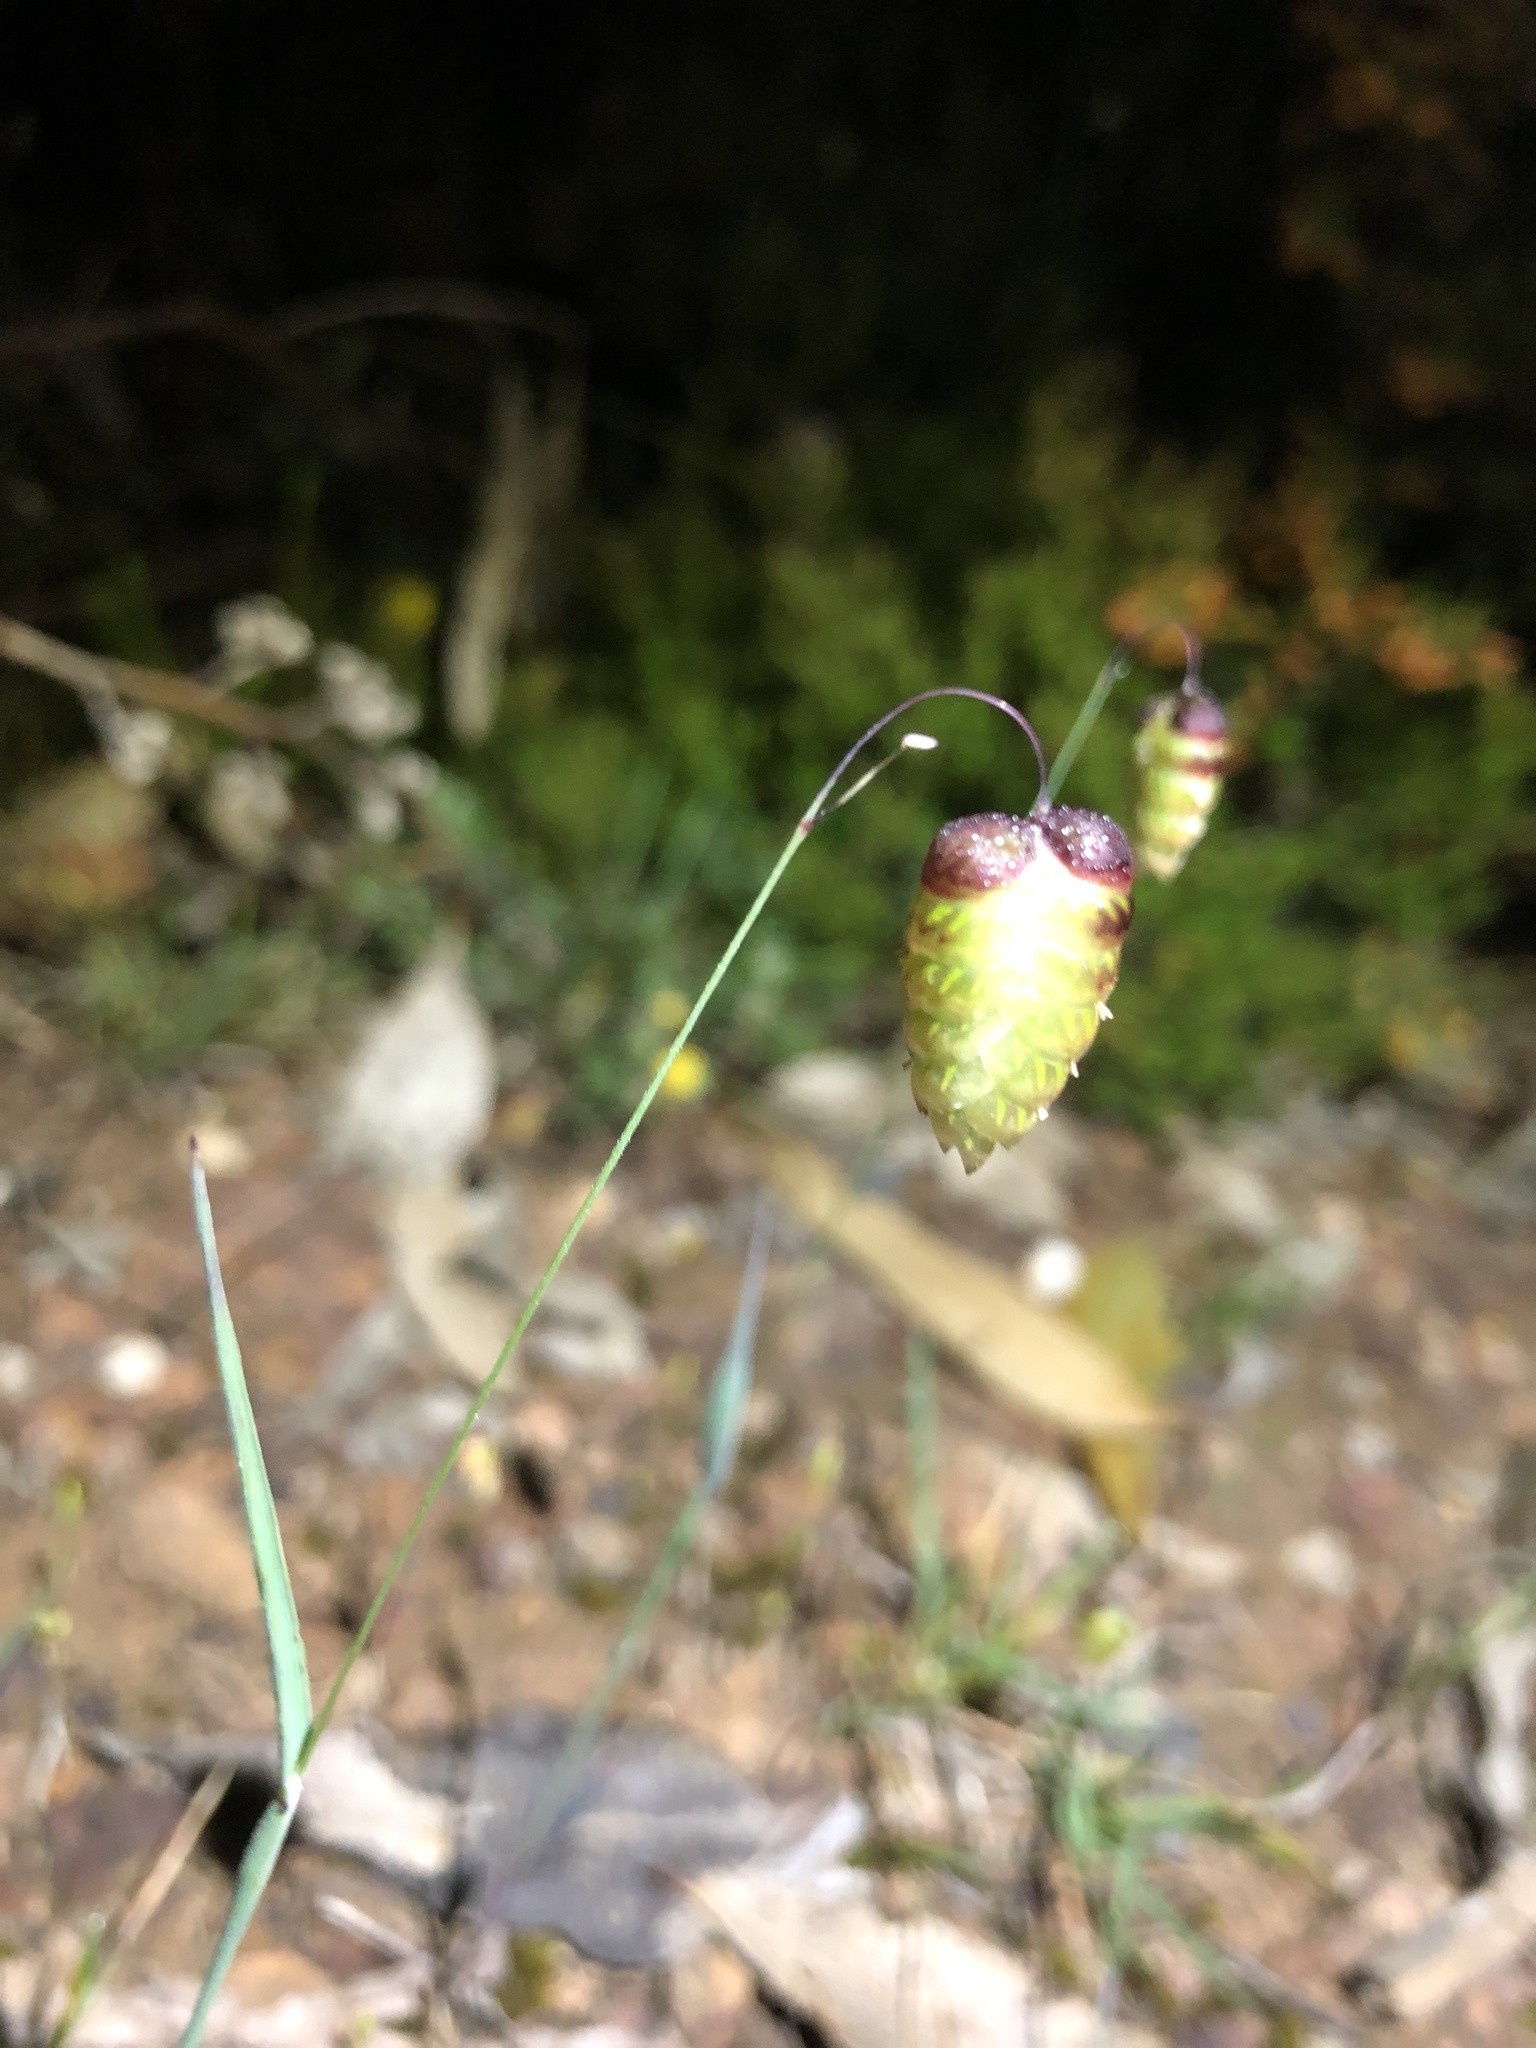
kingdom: Plantae
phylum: Tracheophyta
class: Liliopsida
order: Poales
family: Poaceae
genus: Briza
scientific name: Briza maxima
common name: Big quakinggrass
